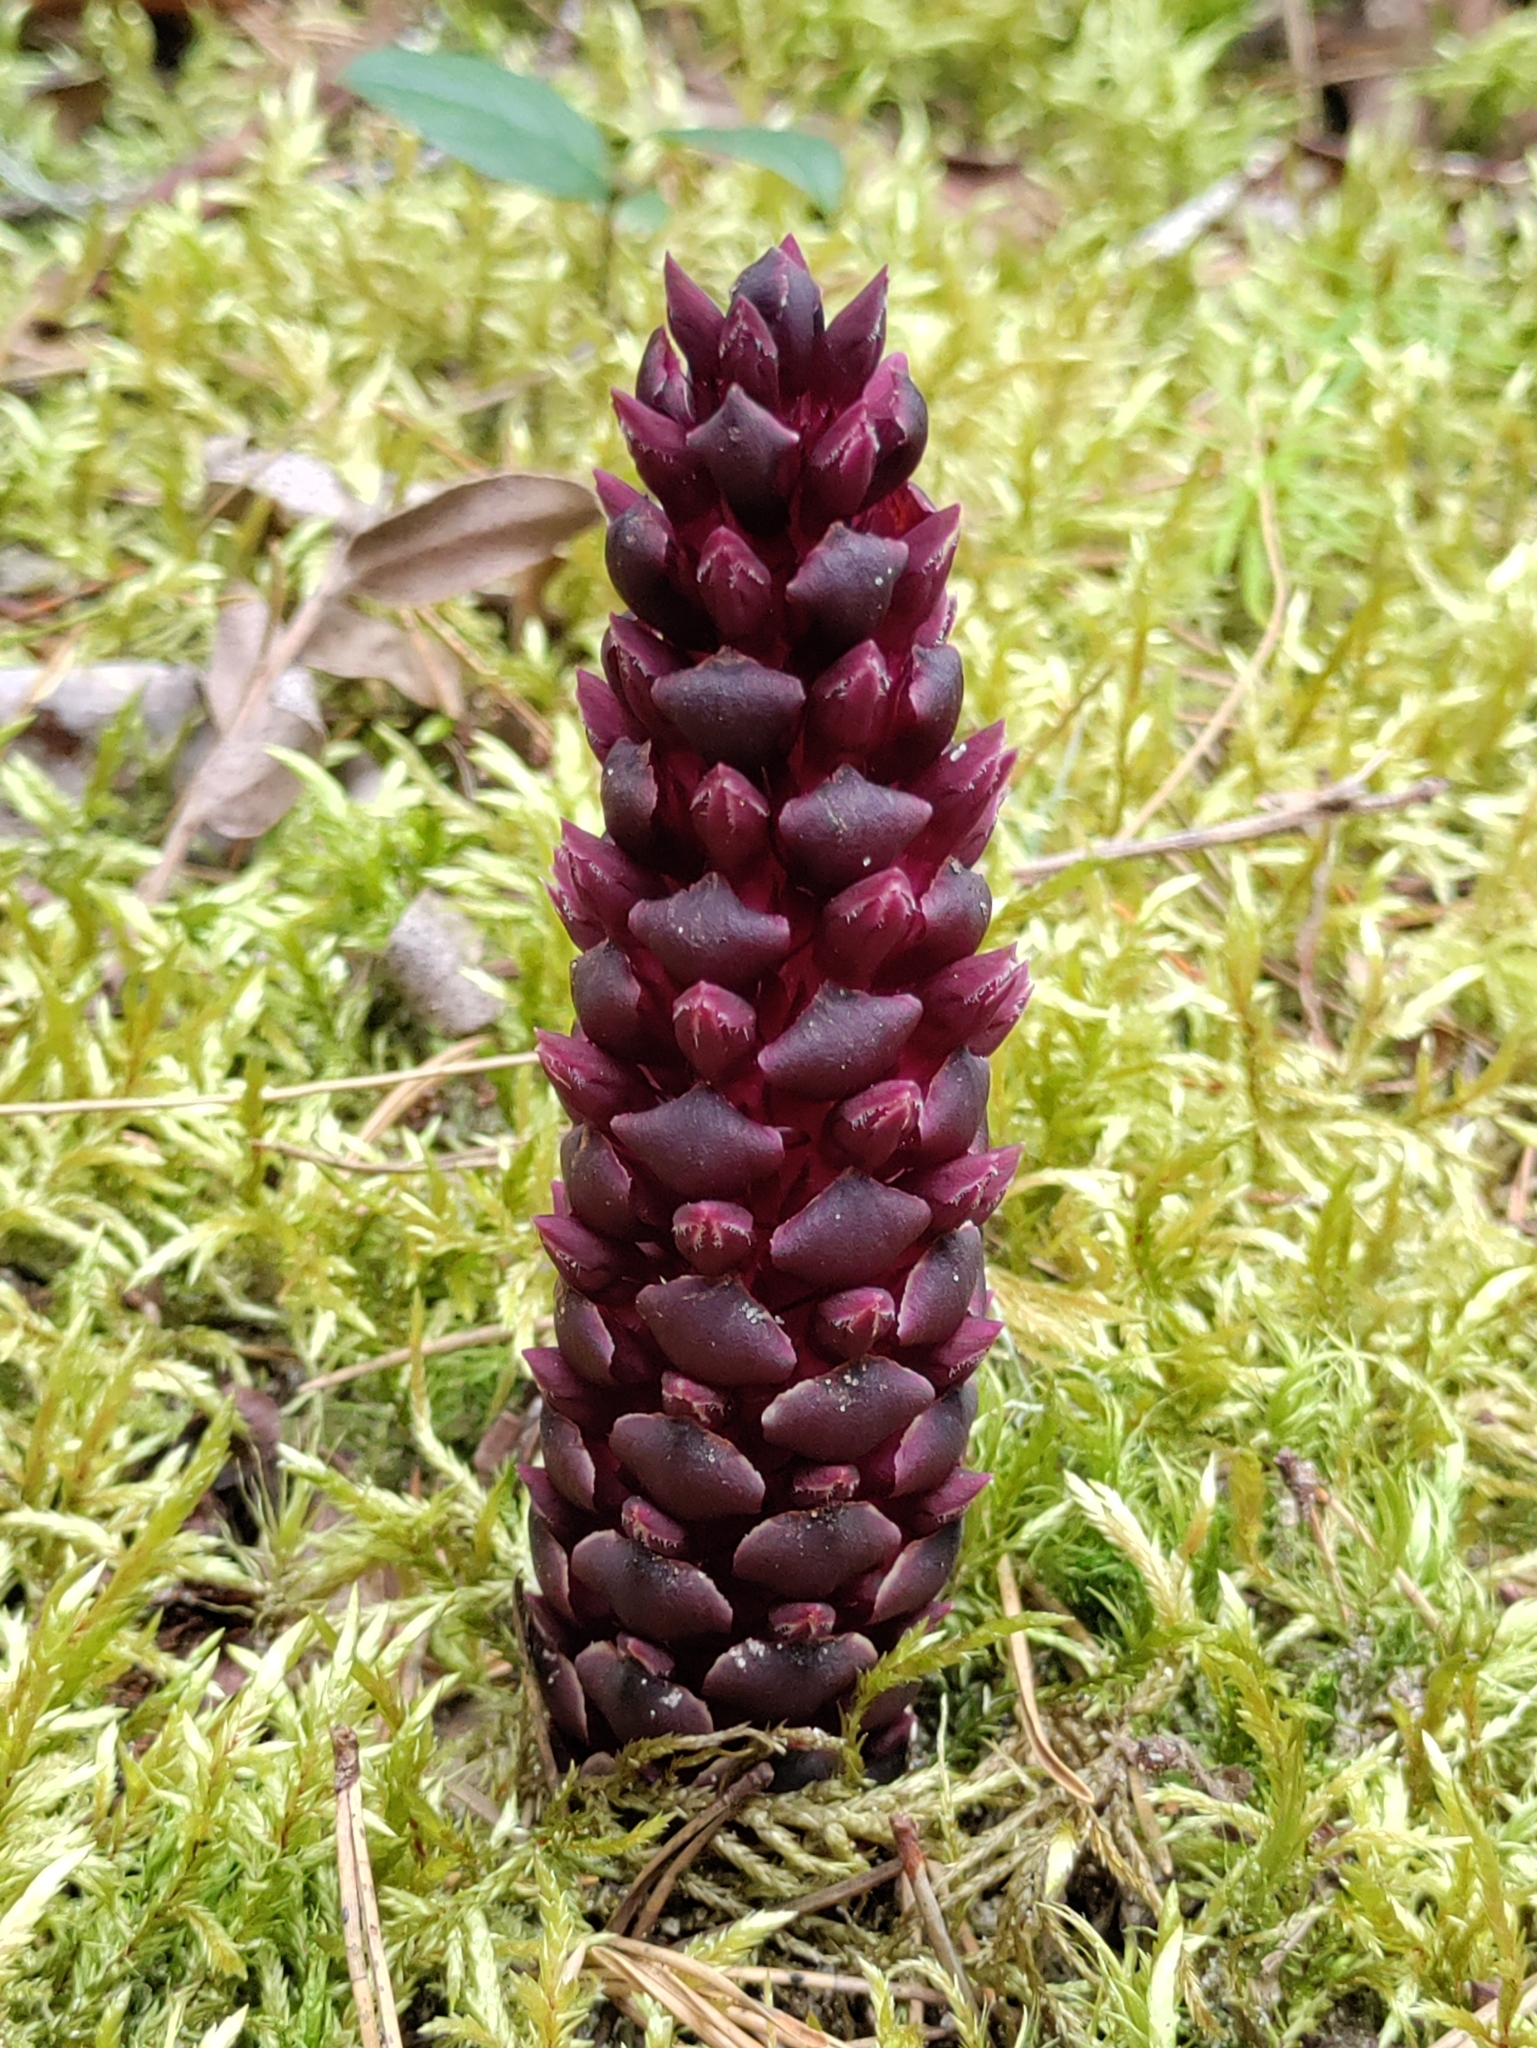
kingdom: Plantae
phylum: Tracheophyta
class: Magnoliopsida
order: Lamiales
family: Orobanchaceae
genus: Kopsiopsis
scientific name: Kopsiopsis hookeri
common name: Hooker's groundcone
